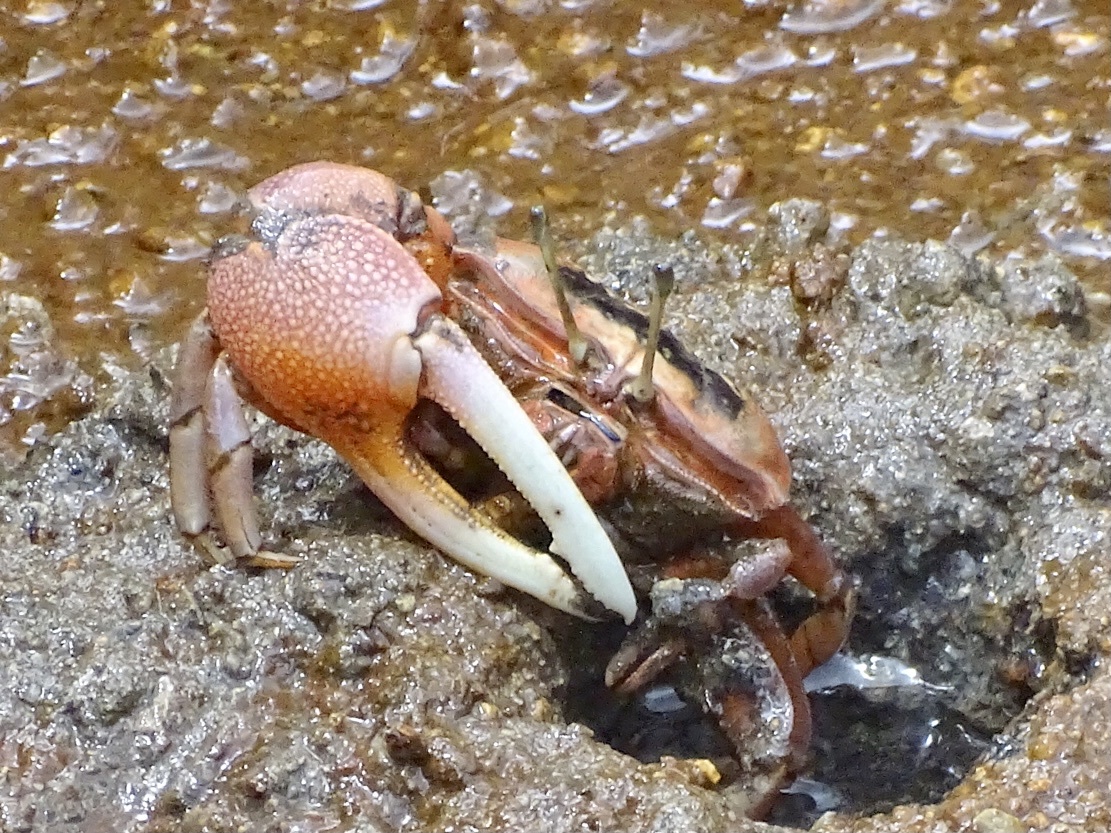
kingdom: Animalia
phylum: Arthropoda
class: Malacostraca
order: Decapoda
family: Ocypodidae
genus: Tubuca
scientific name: Tubuca arcuata
